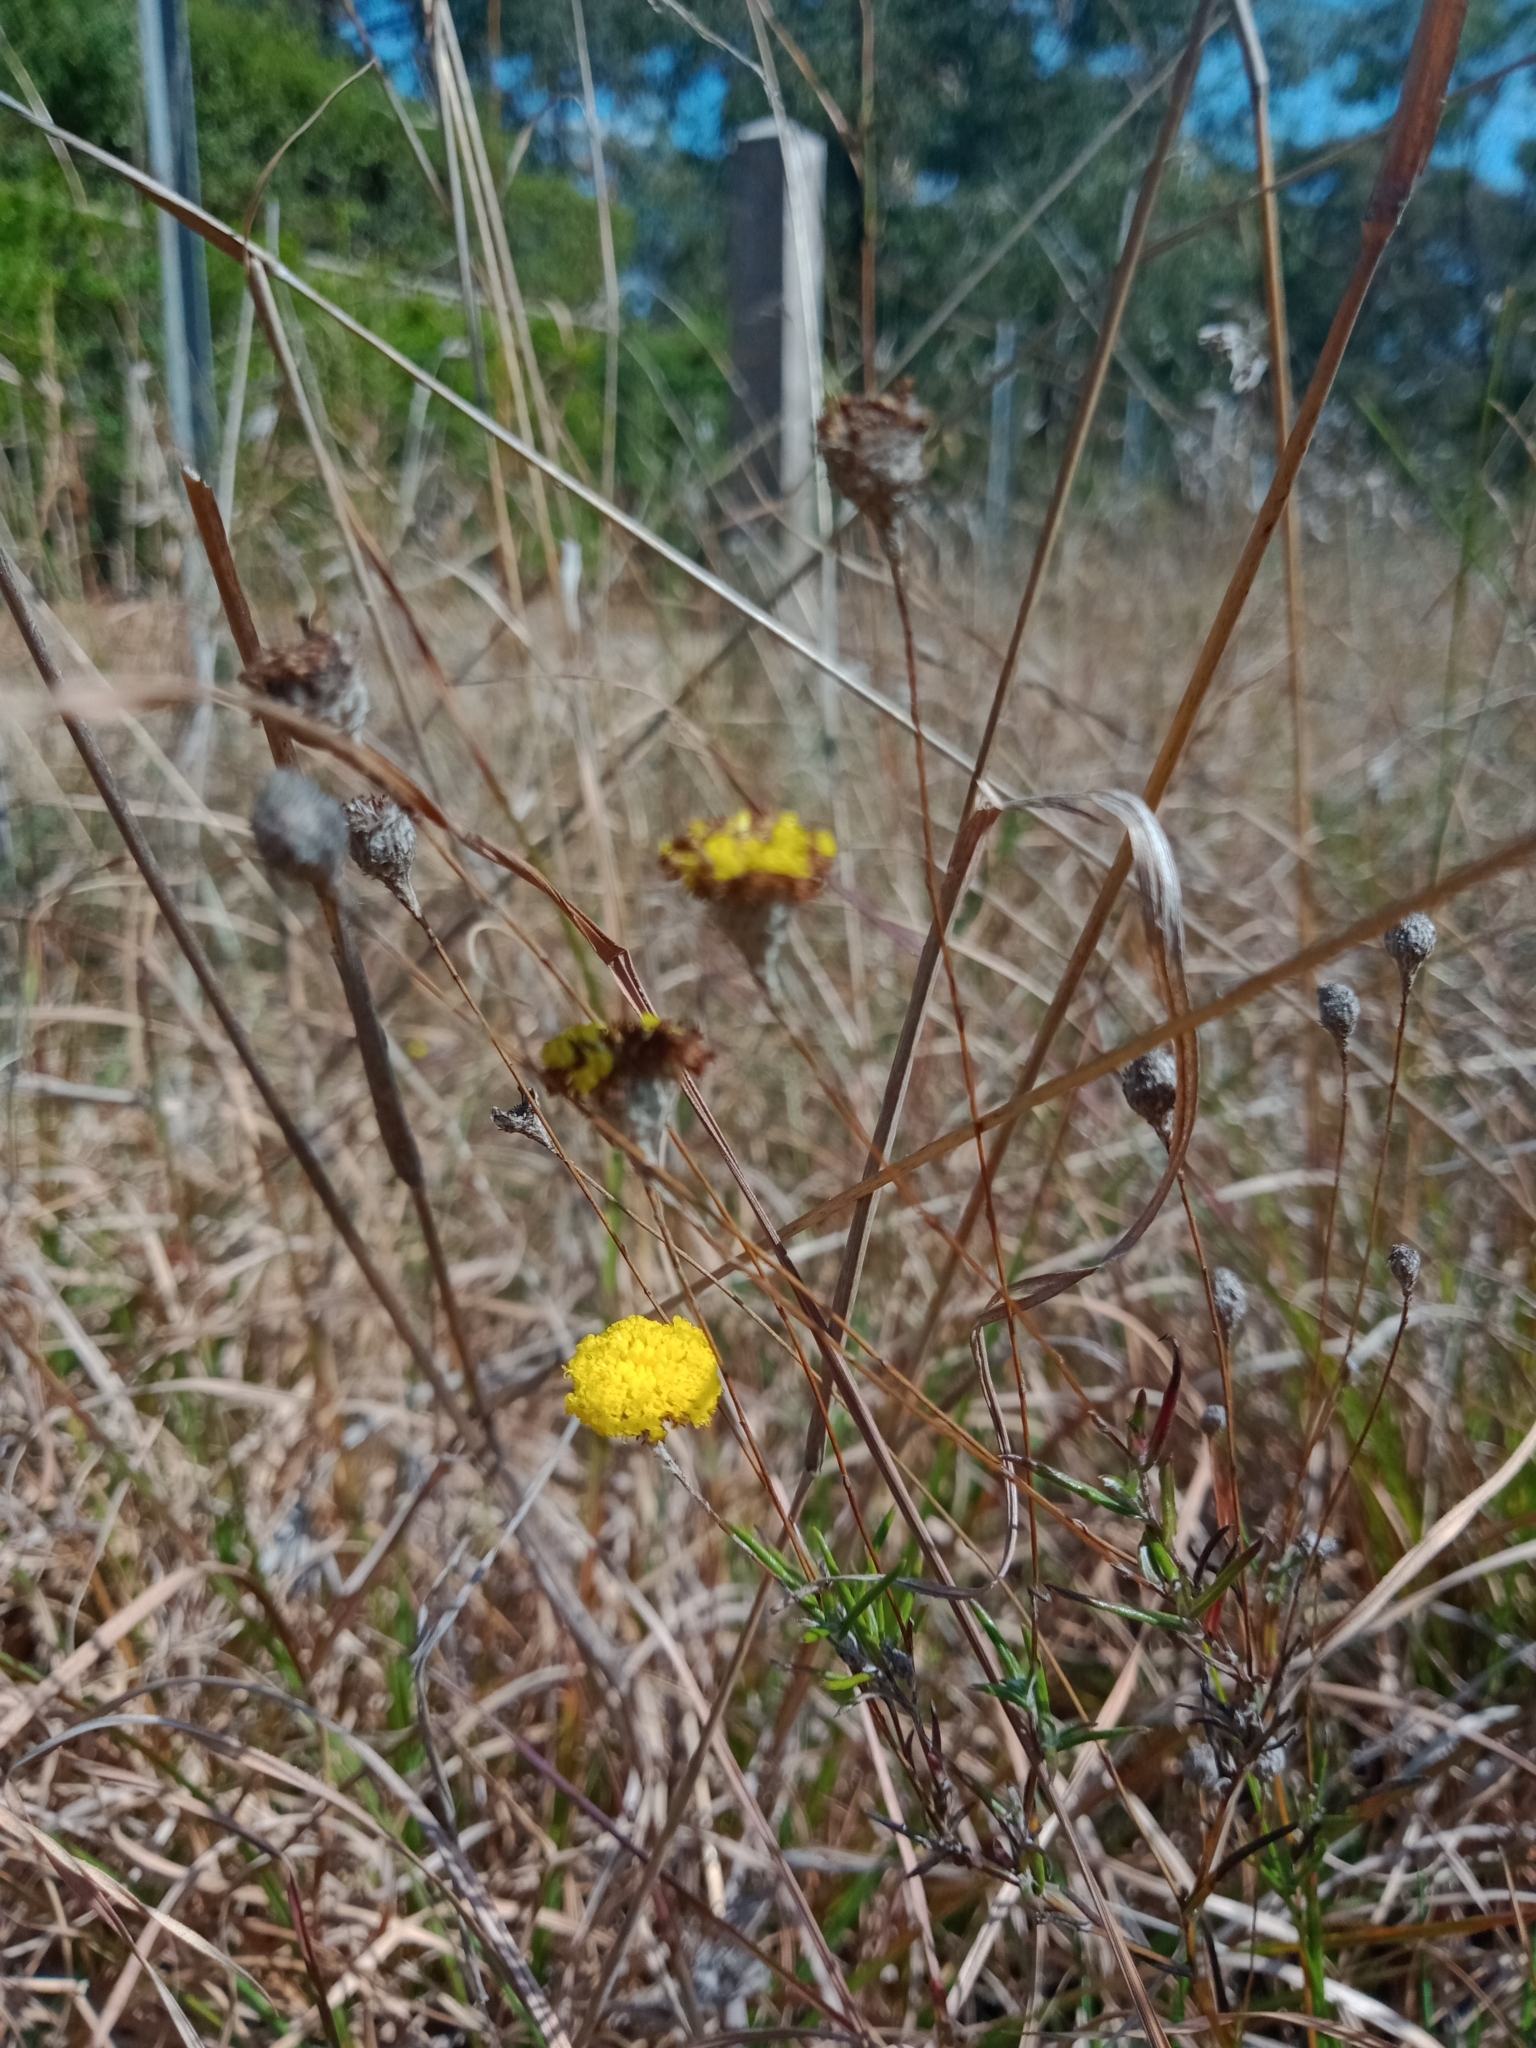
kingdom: Plantae
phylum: Tracheophyta
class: Magnoliopsida
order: Asterales
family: Asteraceae
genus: Leptorhynchos
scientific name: Leptorhynchos tenuifolius
